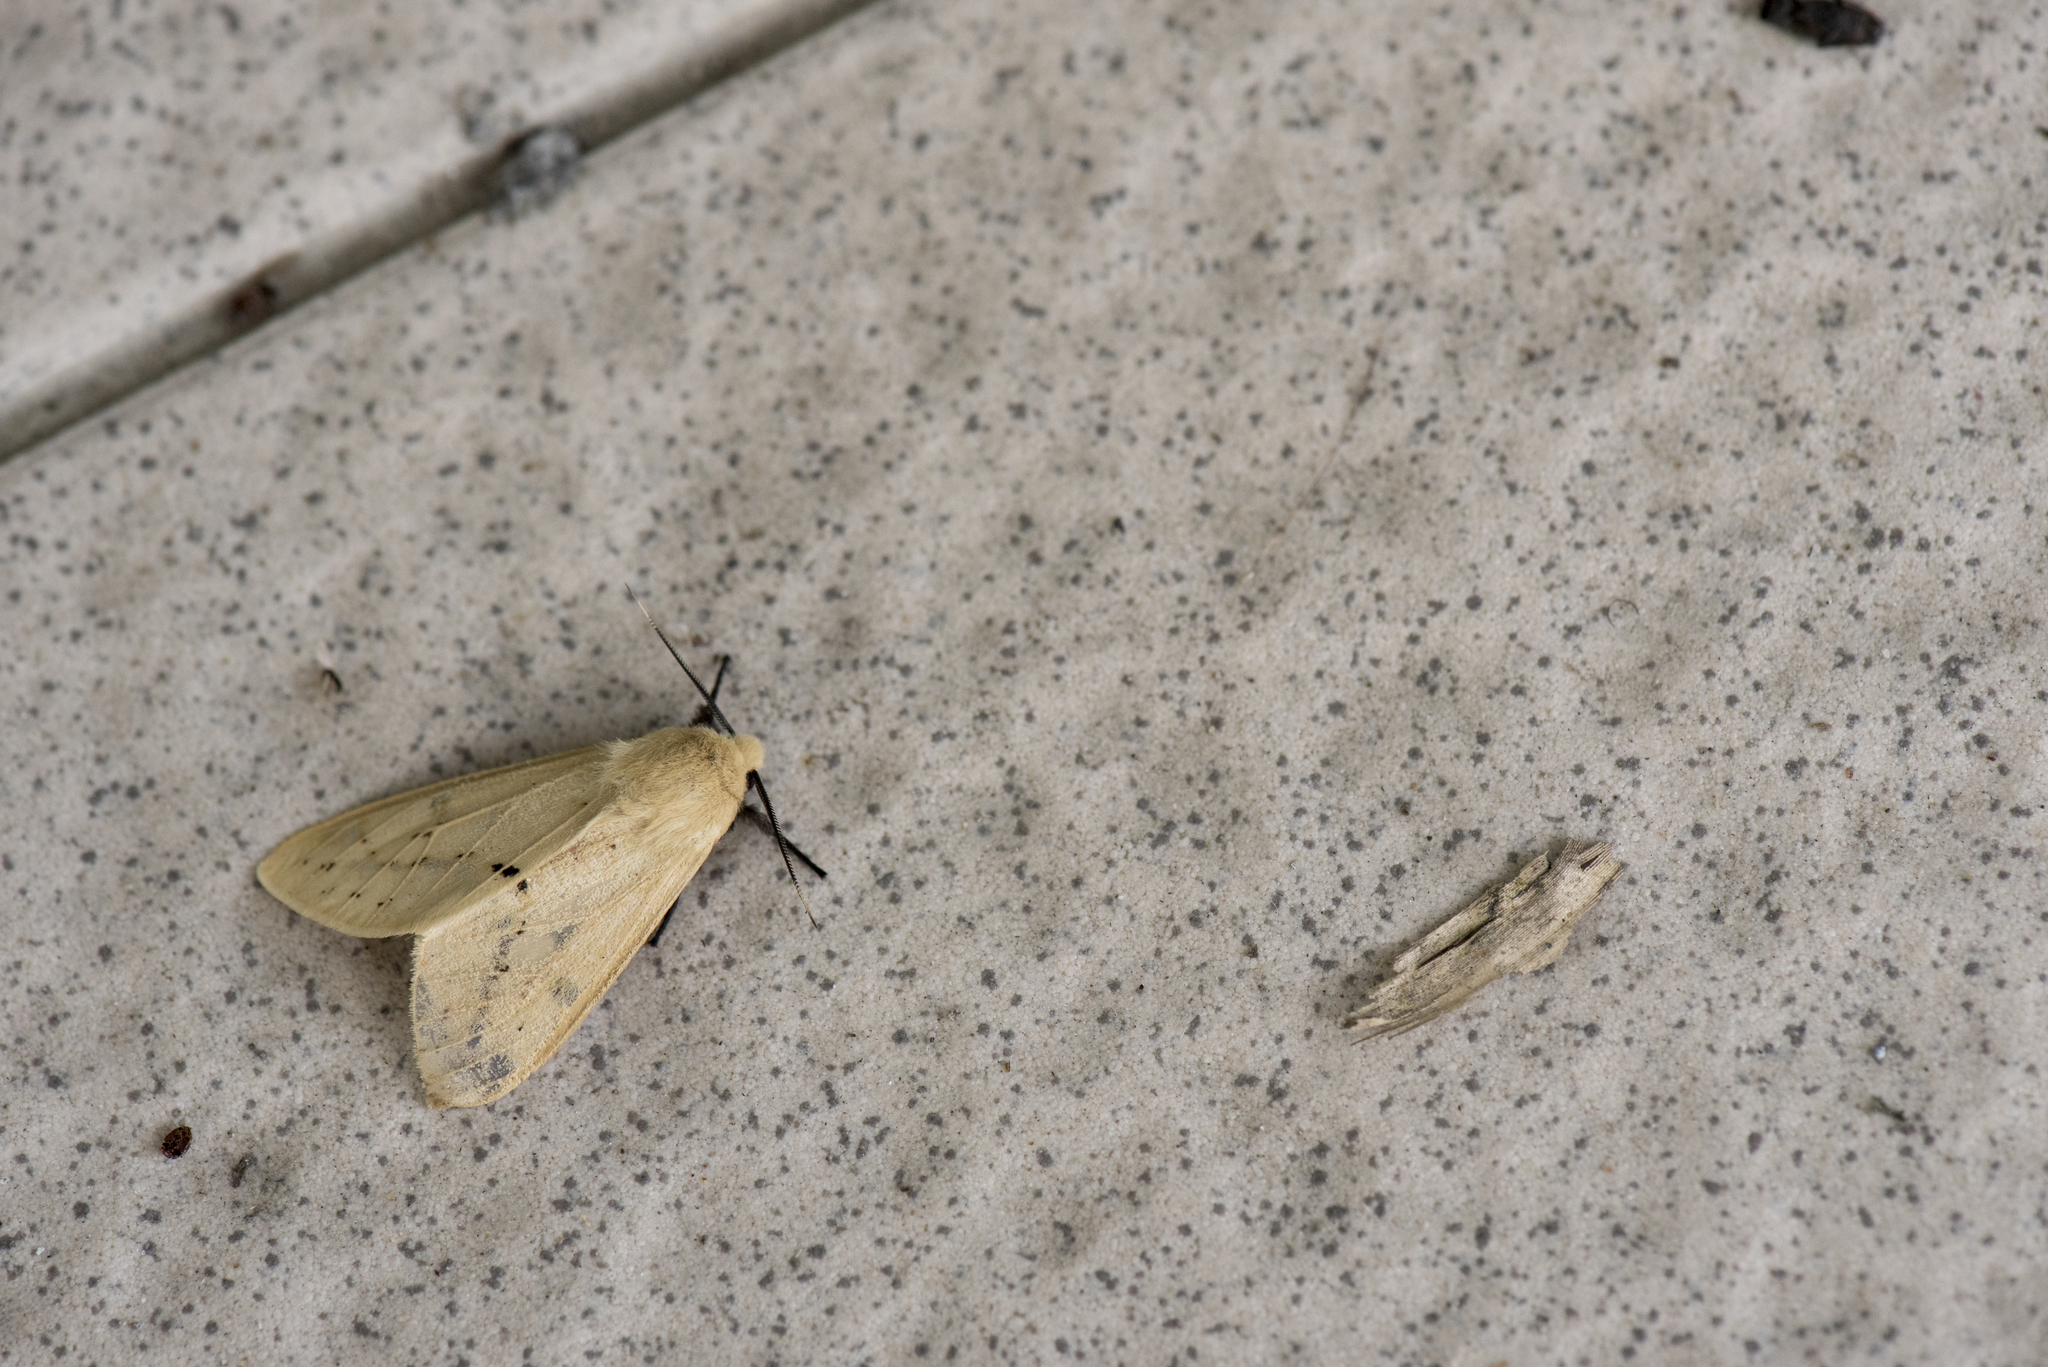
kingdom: Animalia
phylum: Arthropoda
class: Insecta
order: Lepidoptera
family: Erebidae
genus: Spilarctia
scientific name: Spilarctia nydia
